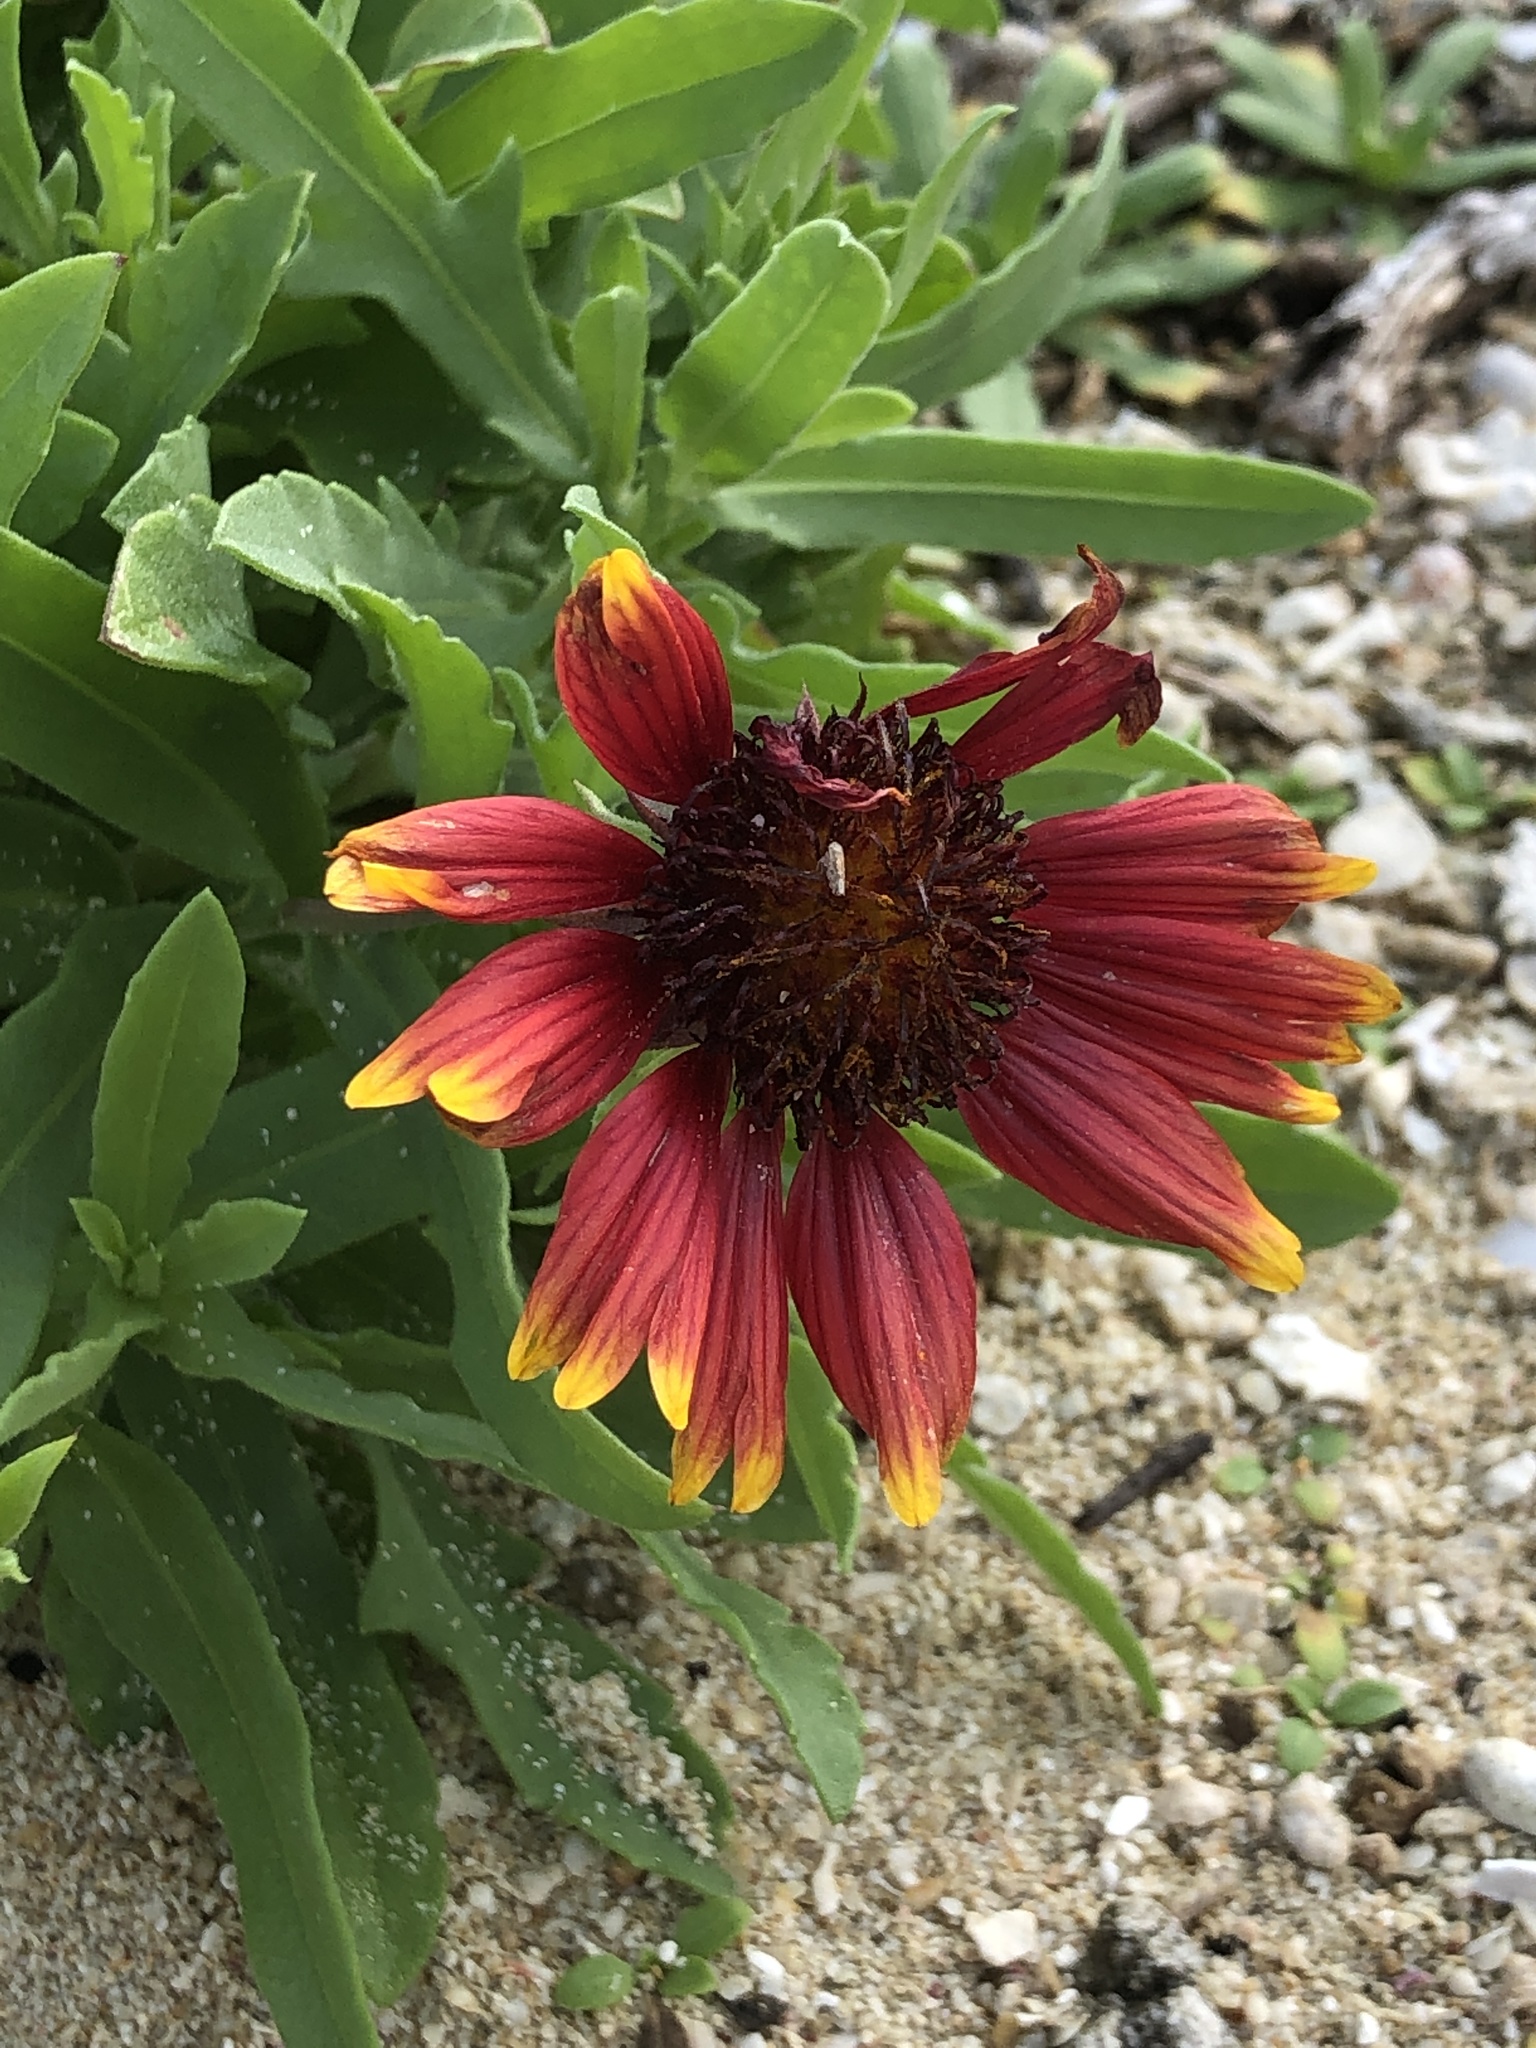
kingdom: Plantae
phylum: Tracheophyta
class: Magnoliopsida
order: Asterales
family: Asteraceae
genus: Gaillardia
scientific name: Gaillardia pulchella
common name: Firewheel
